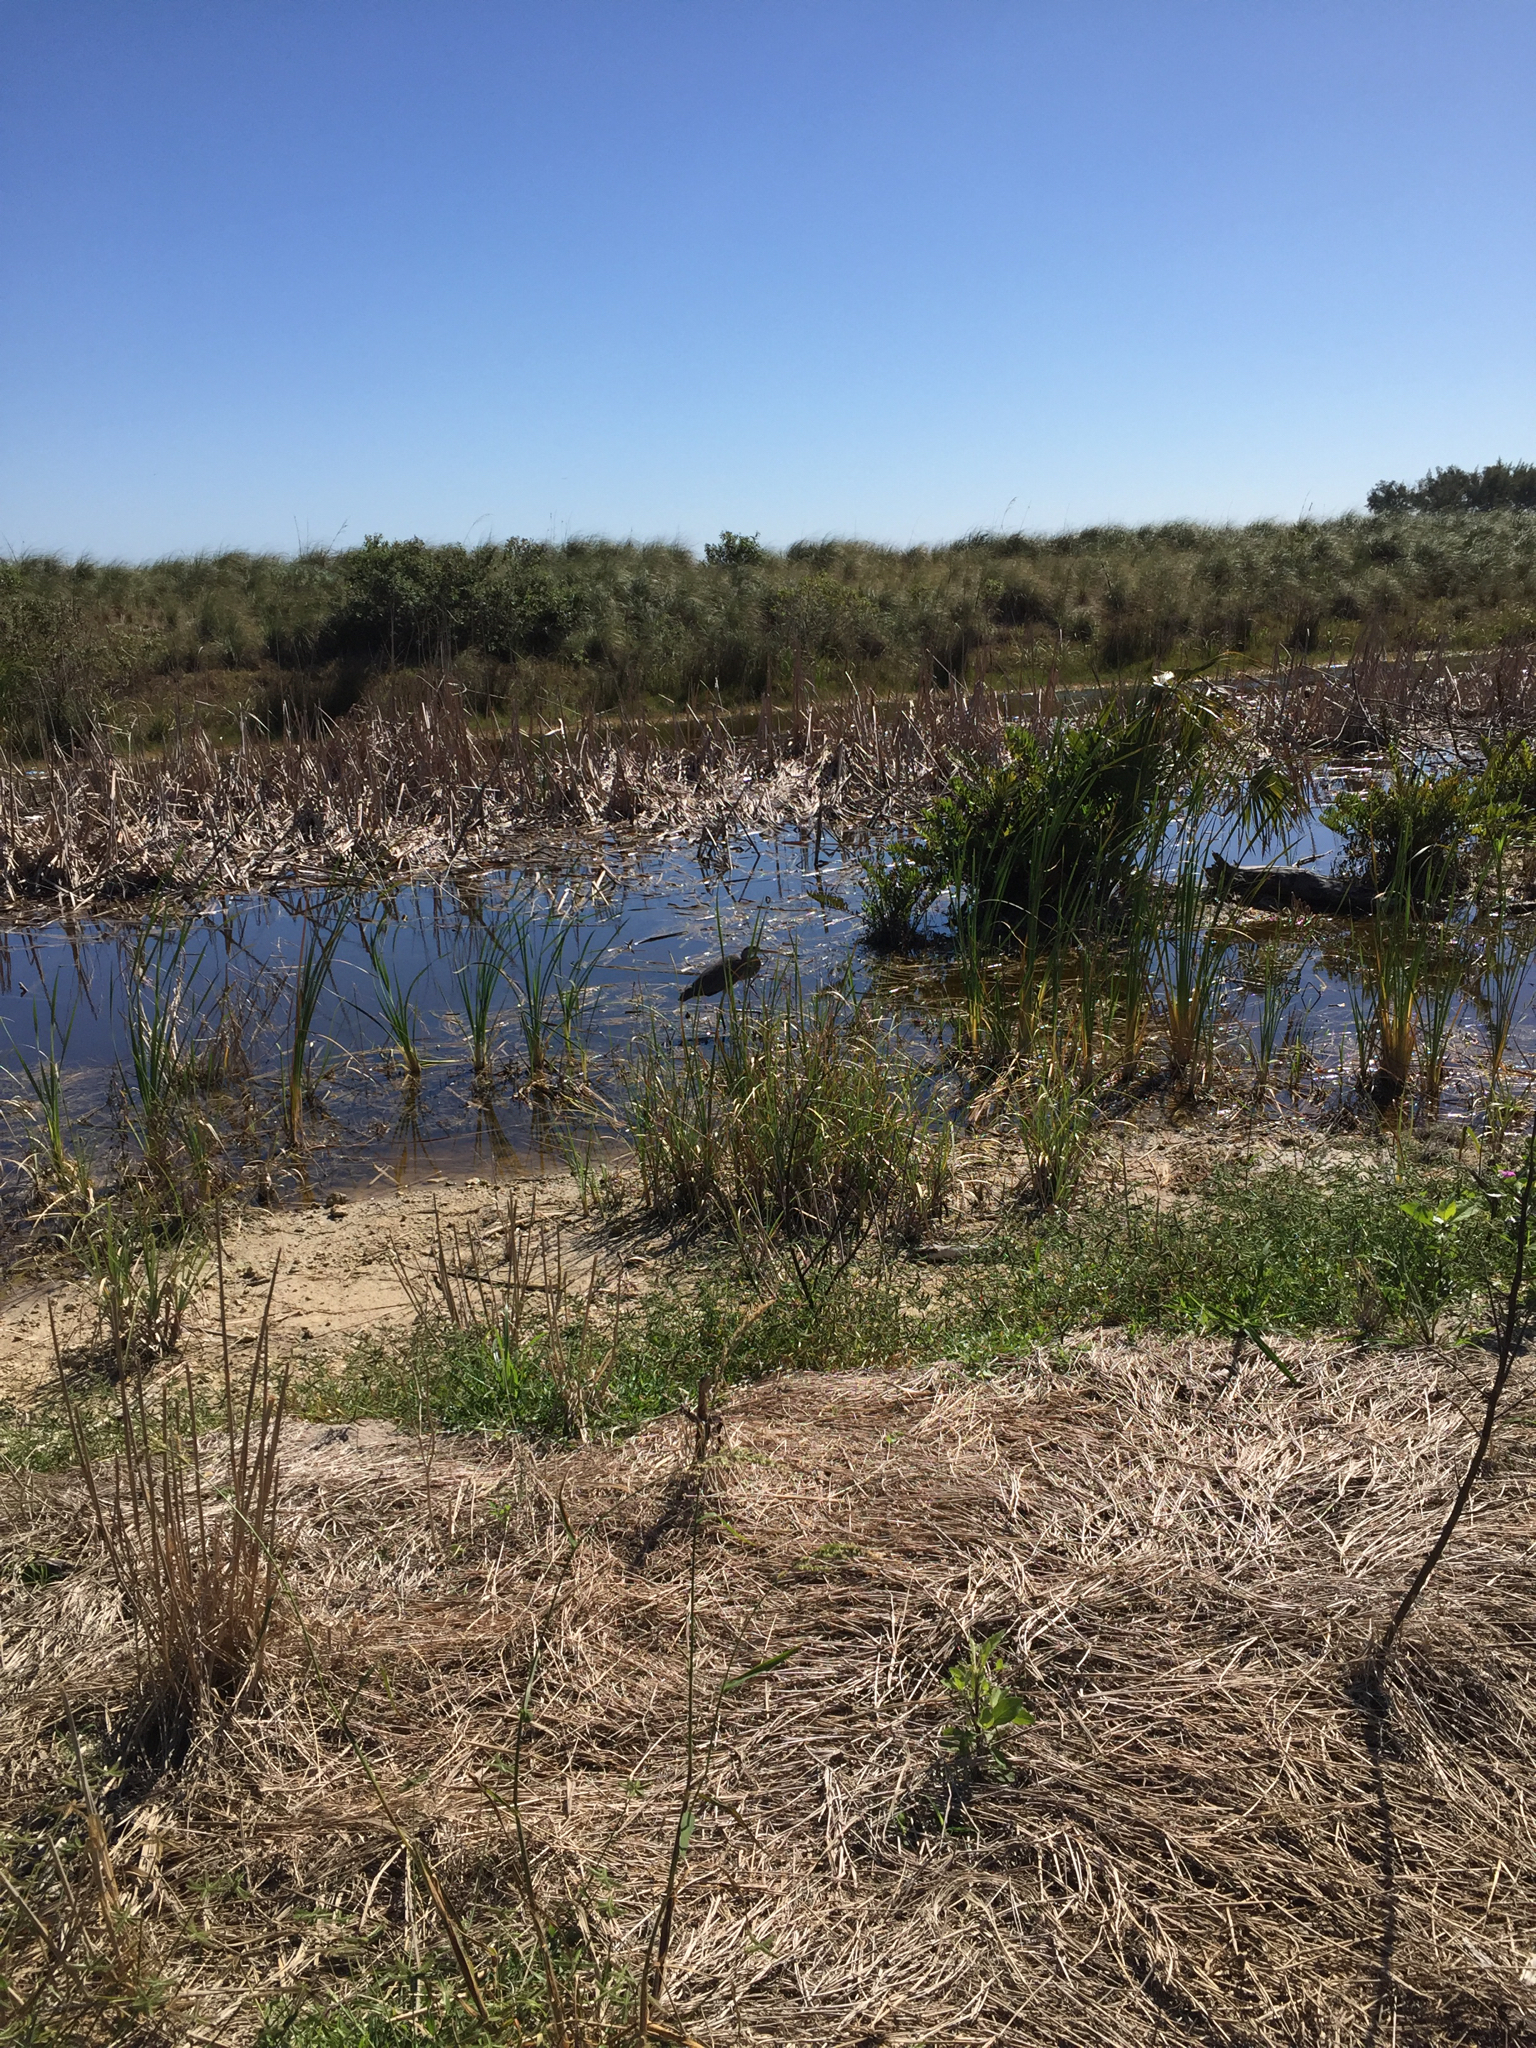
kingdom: Animalia
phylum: Chordata
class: Aves
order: Pelecaniformes
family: Ardeidae
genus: Ardea
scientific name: Ardea herodias
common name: Great blue heron
